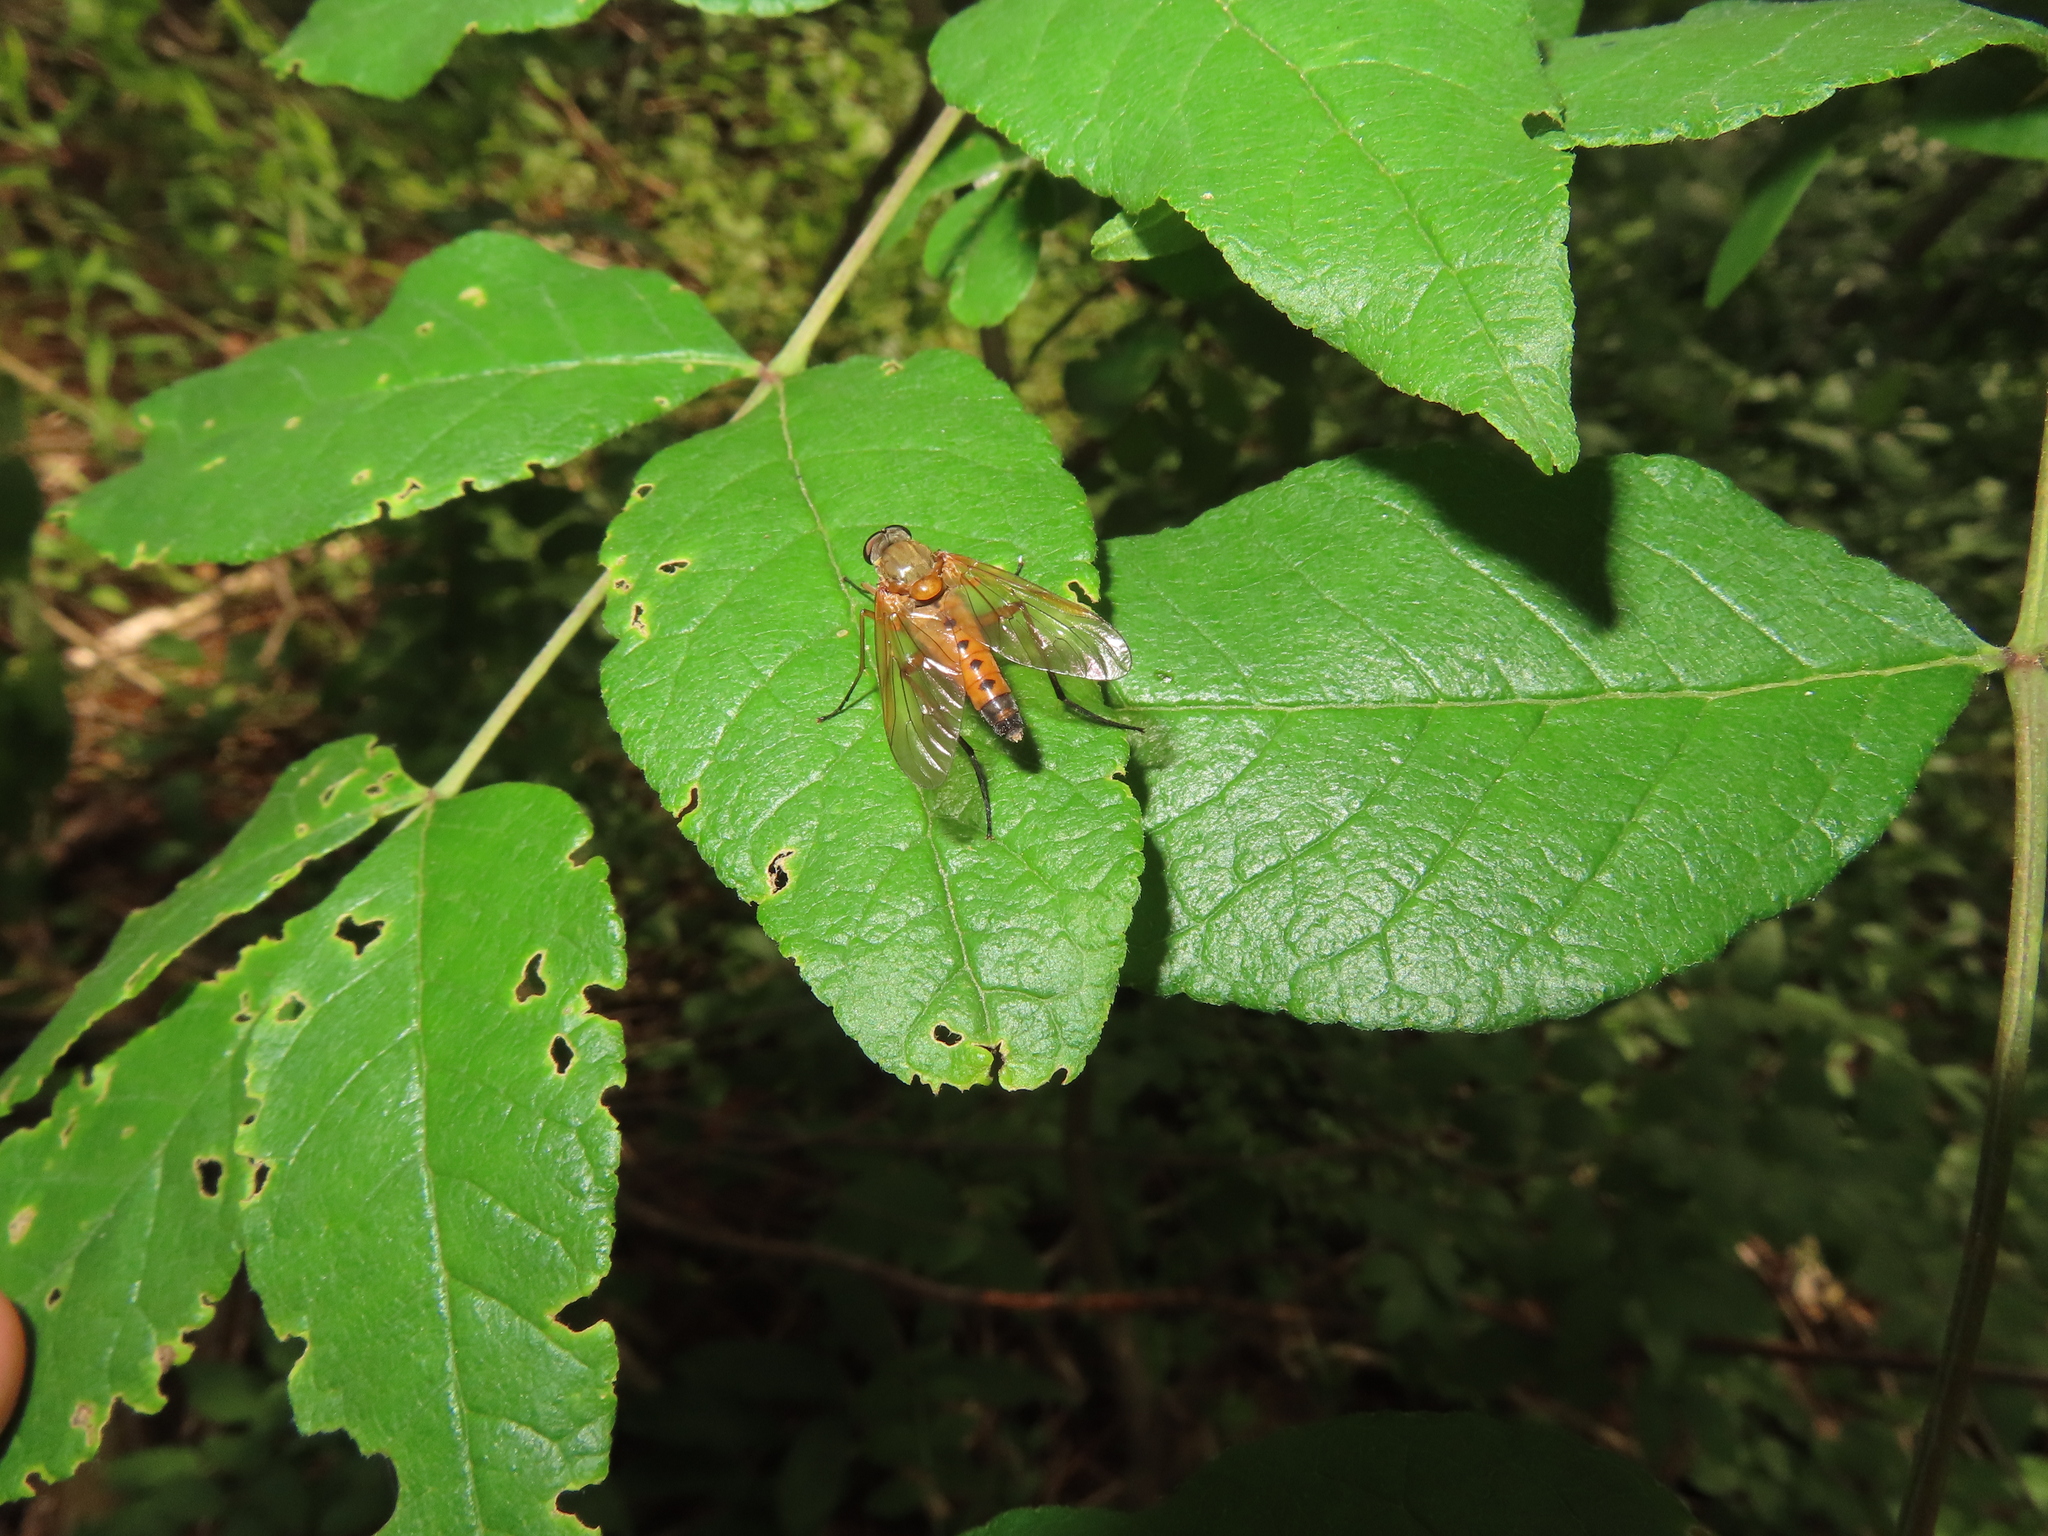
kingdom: Animalia
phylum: Arthropoda
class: Insecta
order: Diptera
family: Rhagionidae
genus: Rhagio
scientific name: Rhagio tringaria
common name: Marsh snipefly
